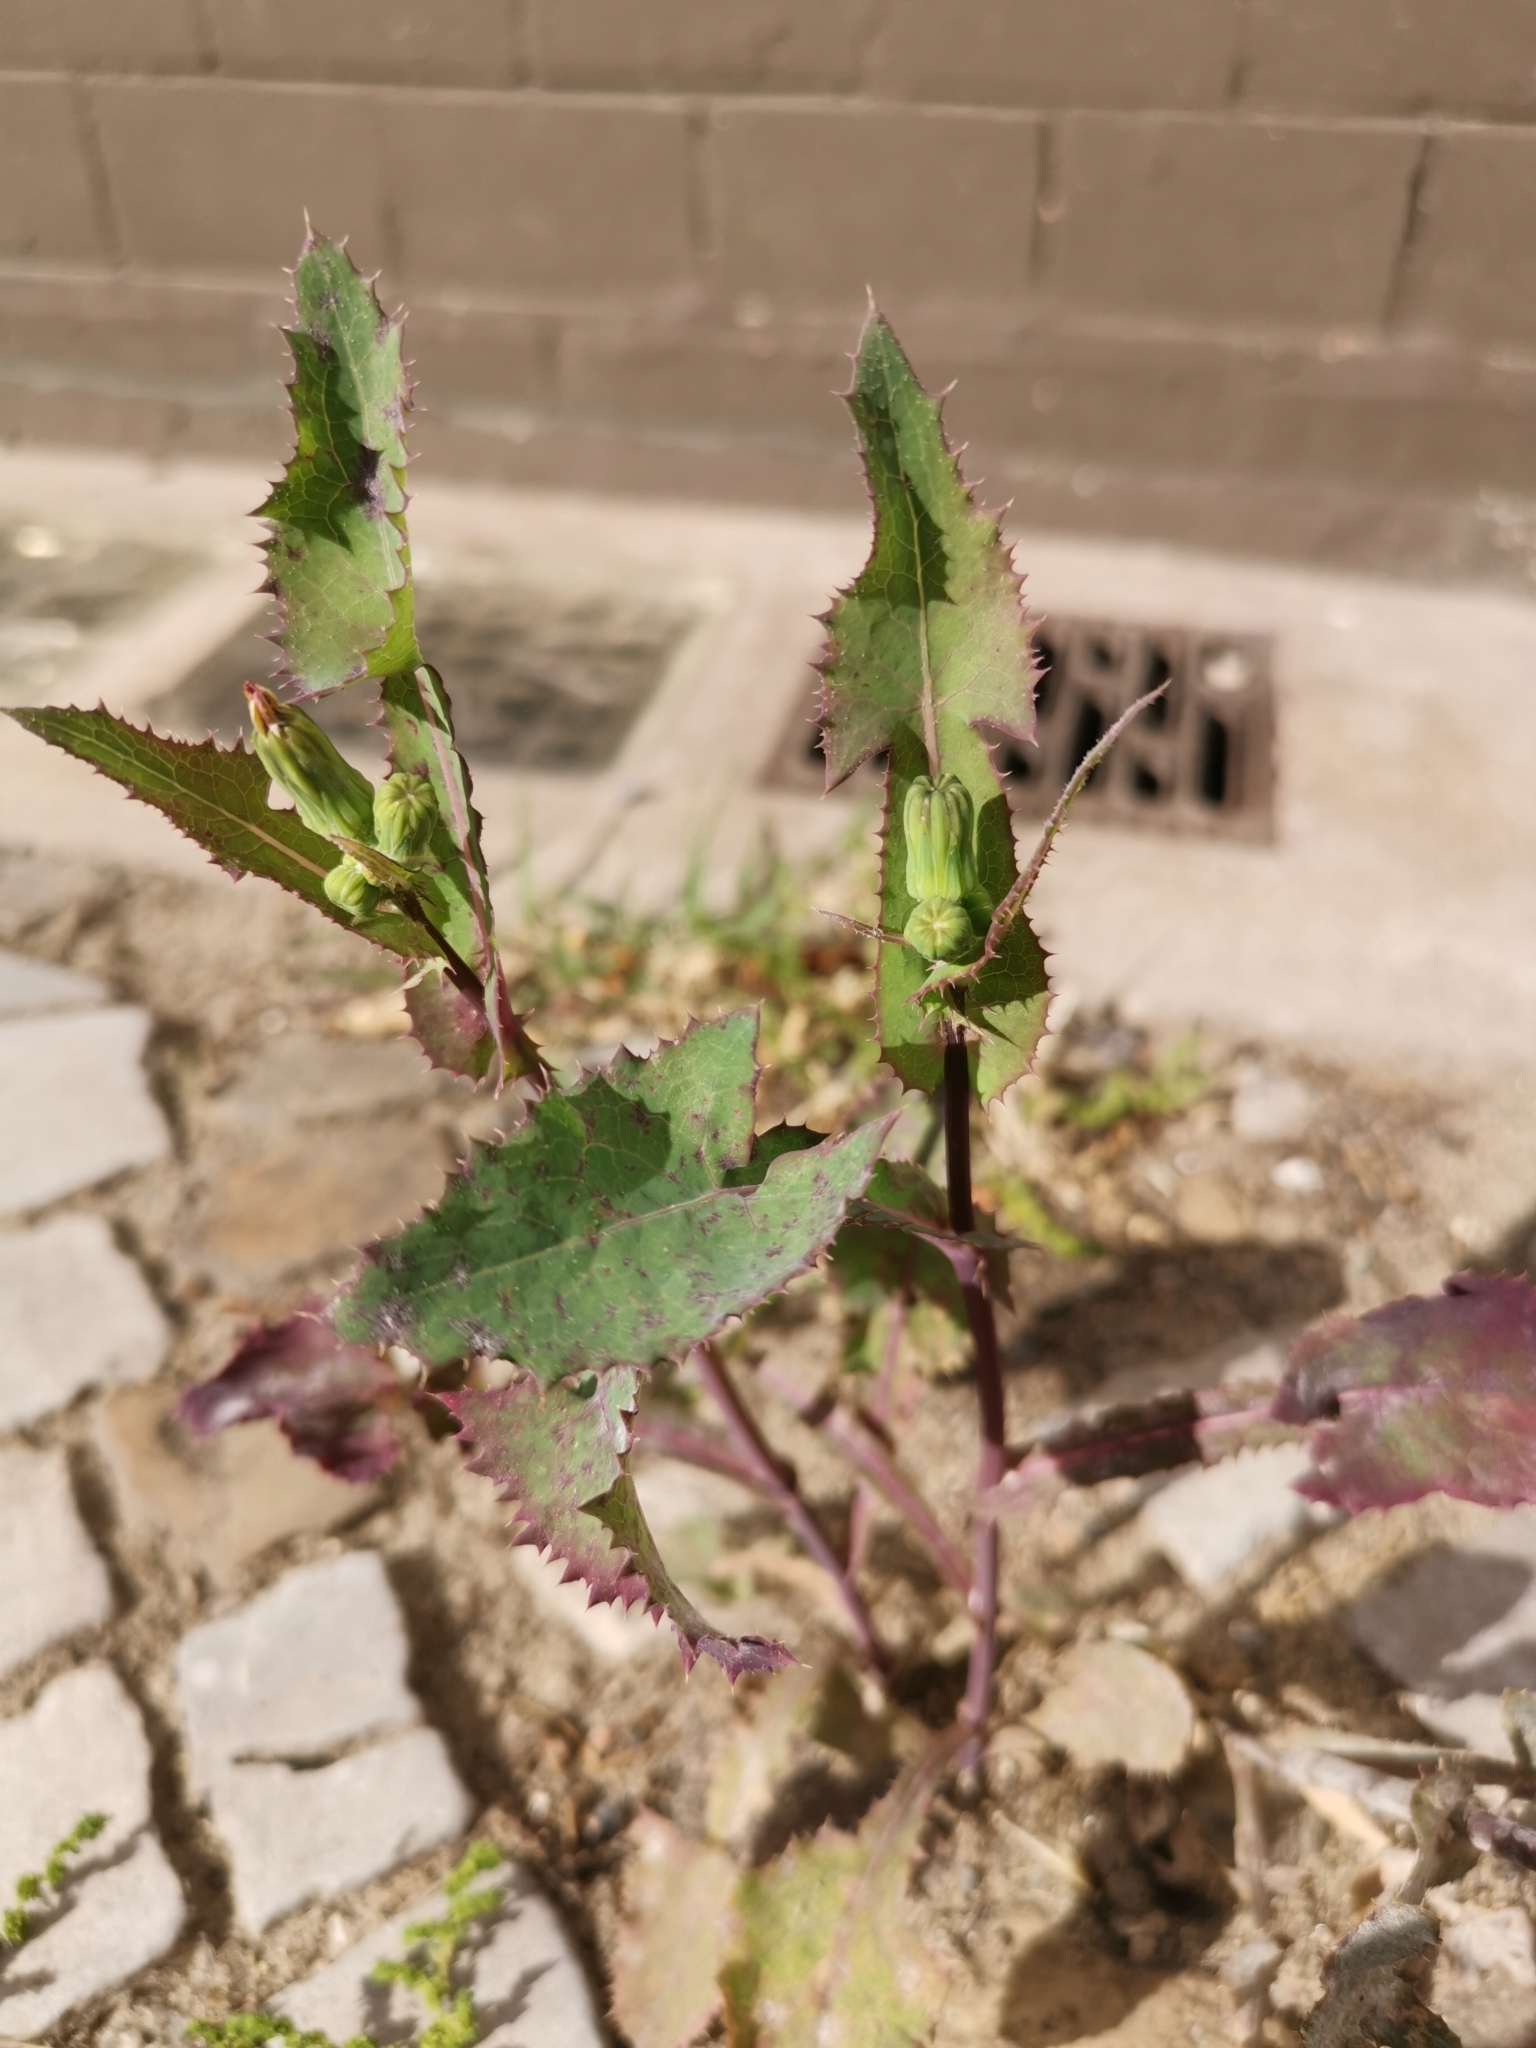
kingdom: Plantae
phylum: Tracheophyta
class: Magnoliopsida
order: Asterales
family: Asteraceae
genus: Sonchus
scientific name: Sonchus oleraceus
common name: Common sowthistle
